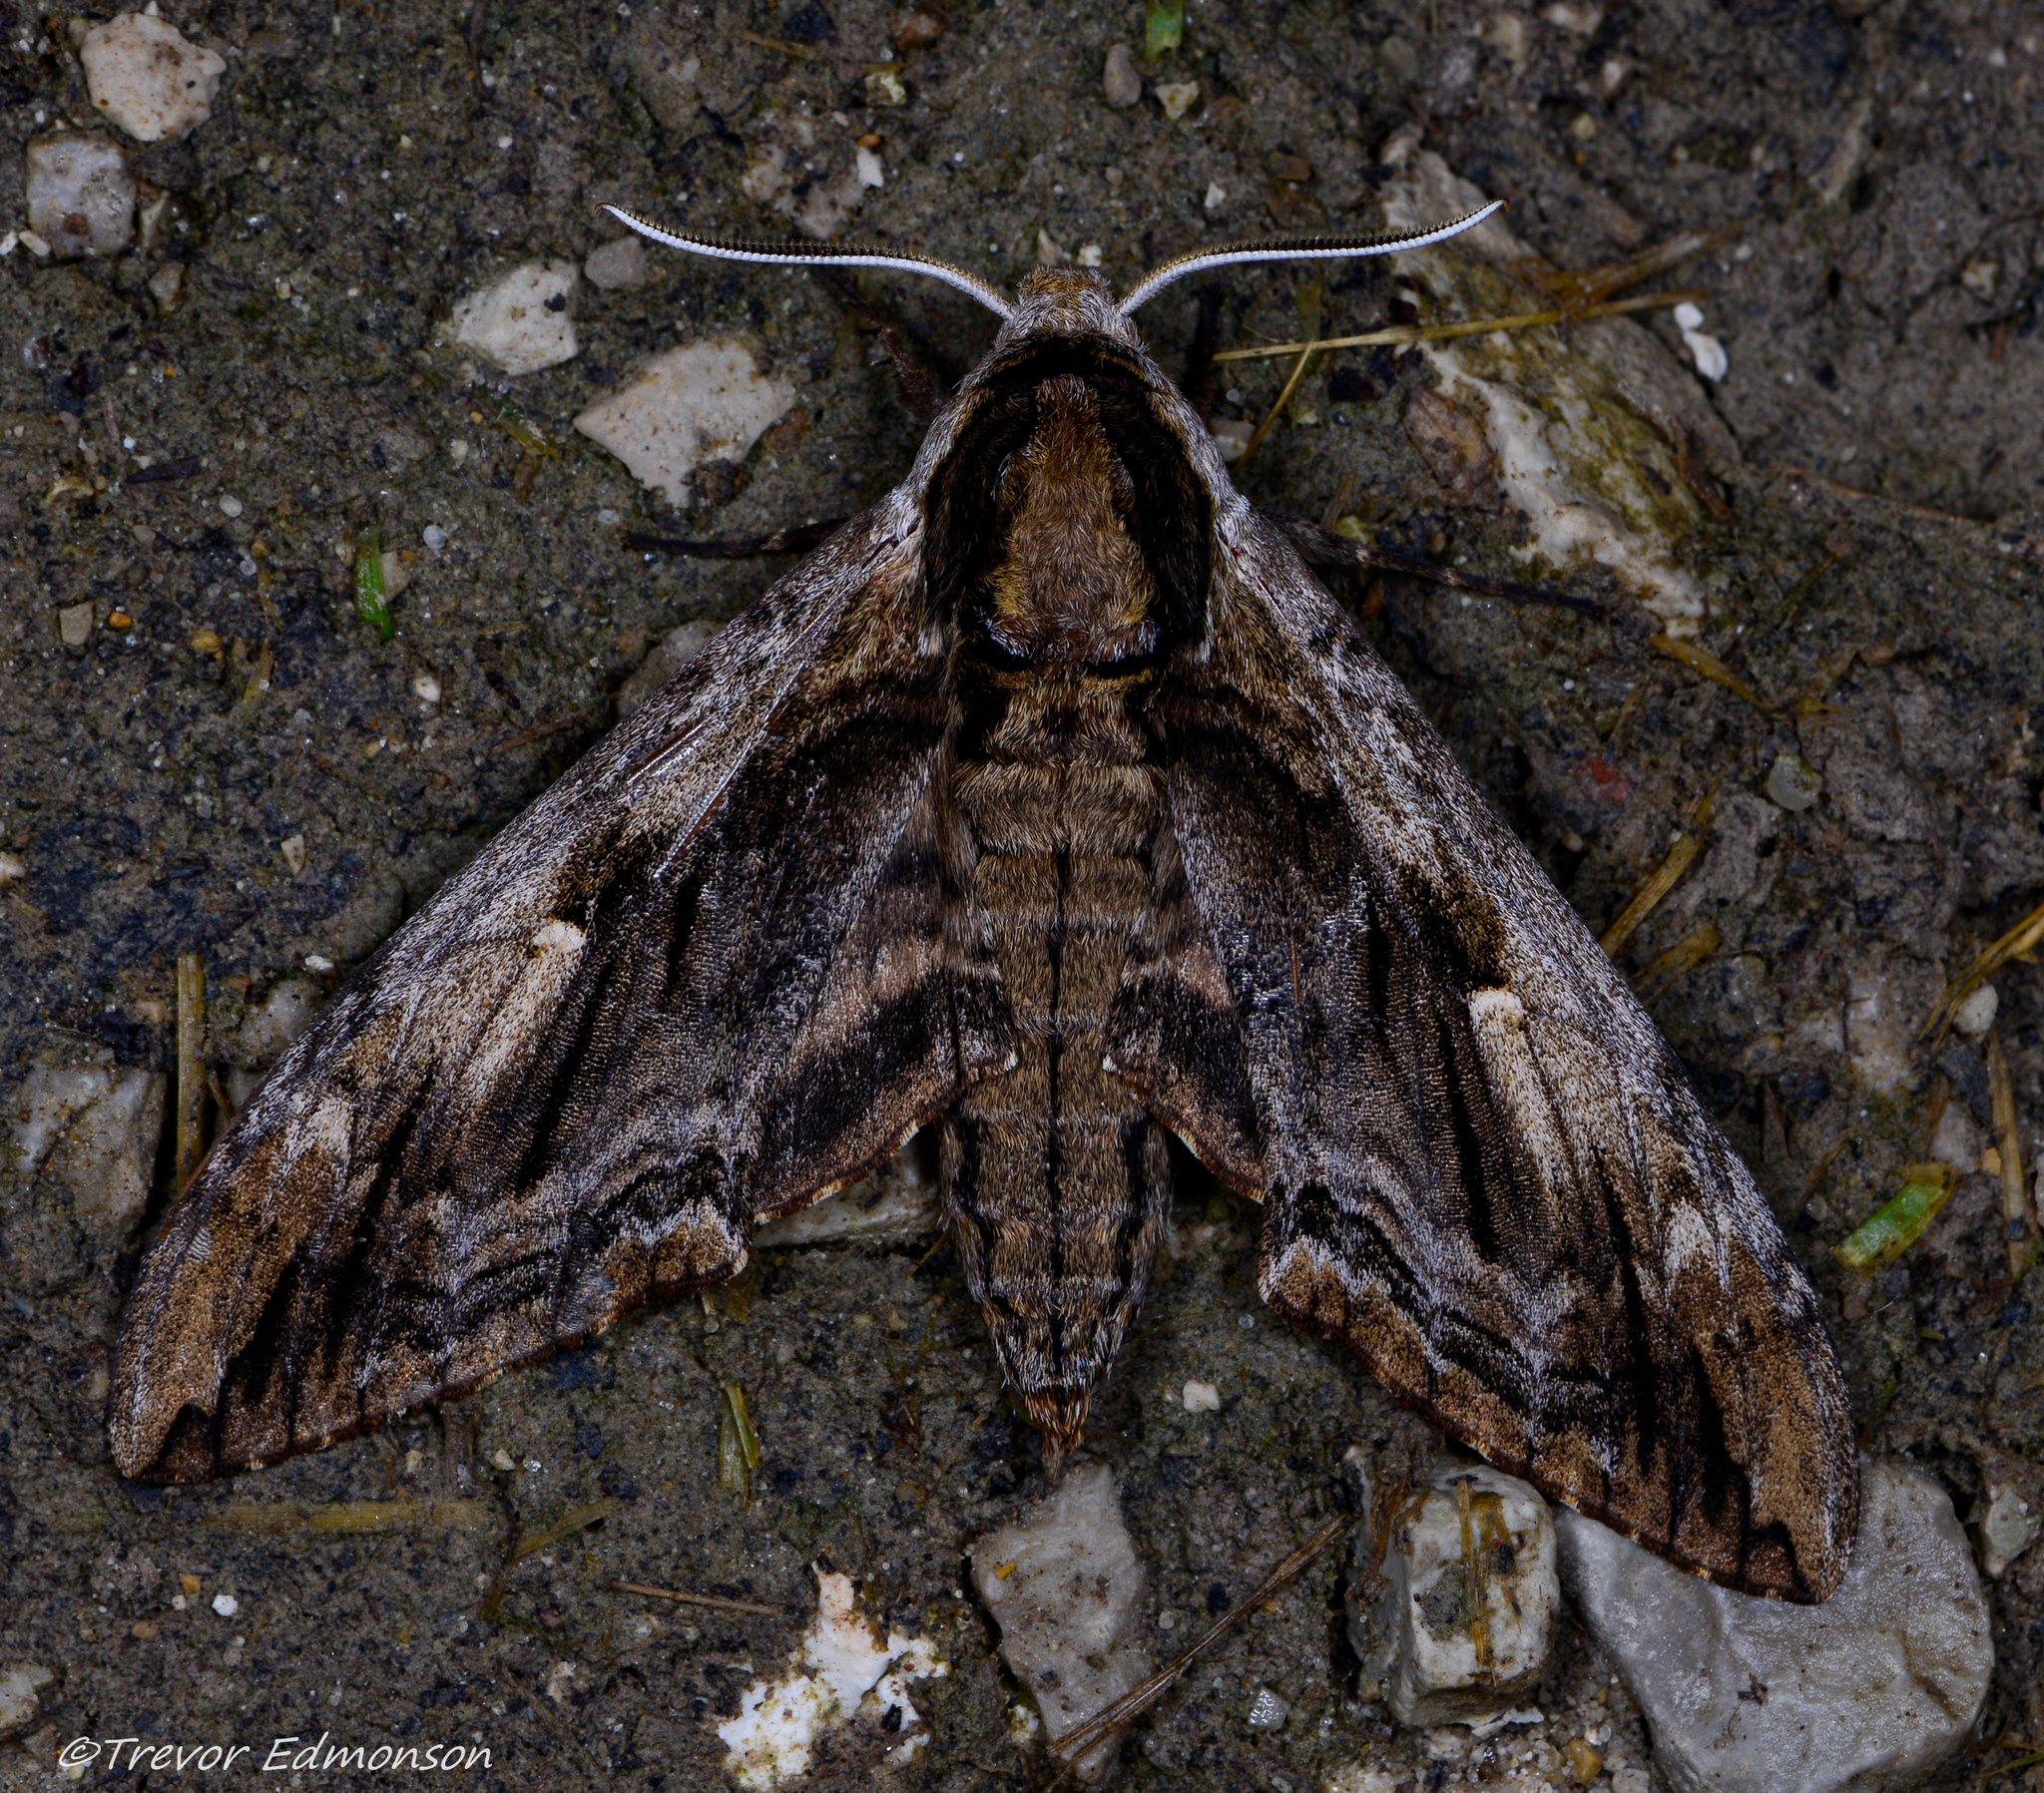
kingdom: Animalia
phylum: Arthropoda
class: Insecta
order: Lepidoptera
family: Sphingidae
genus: Ceratomia
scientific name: Ceratomia amyntor
